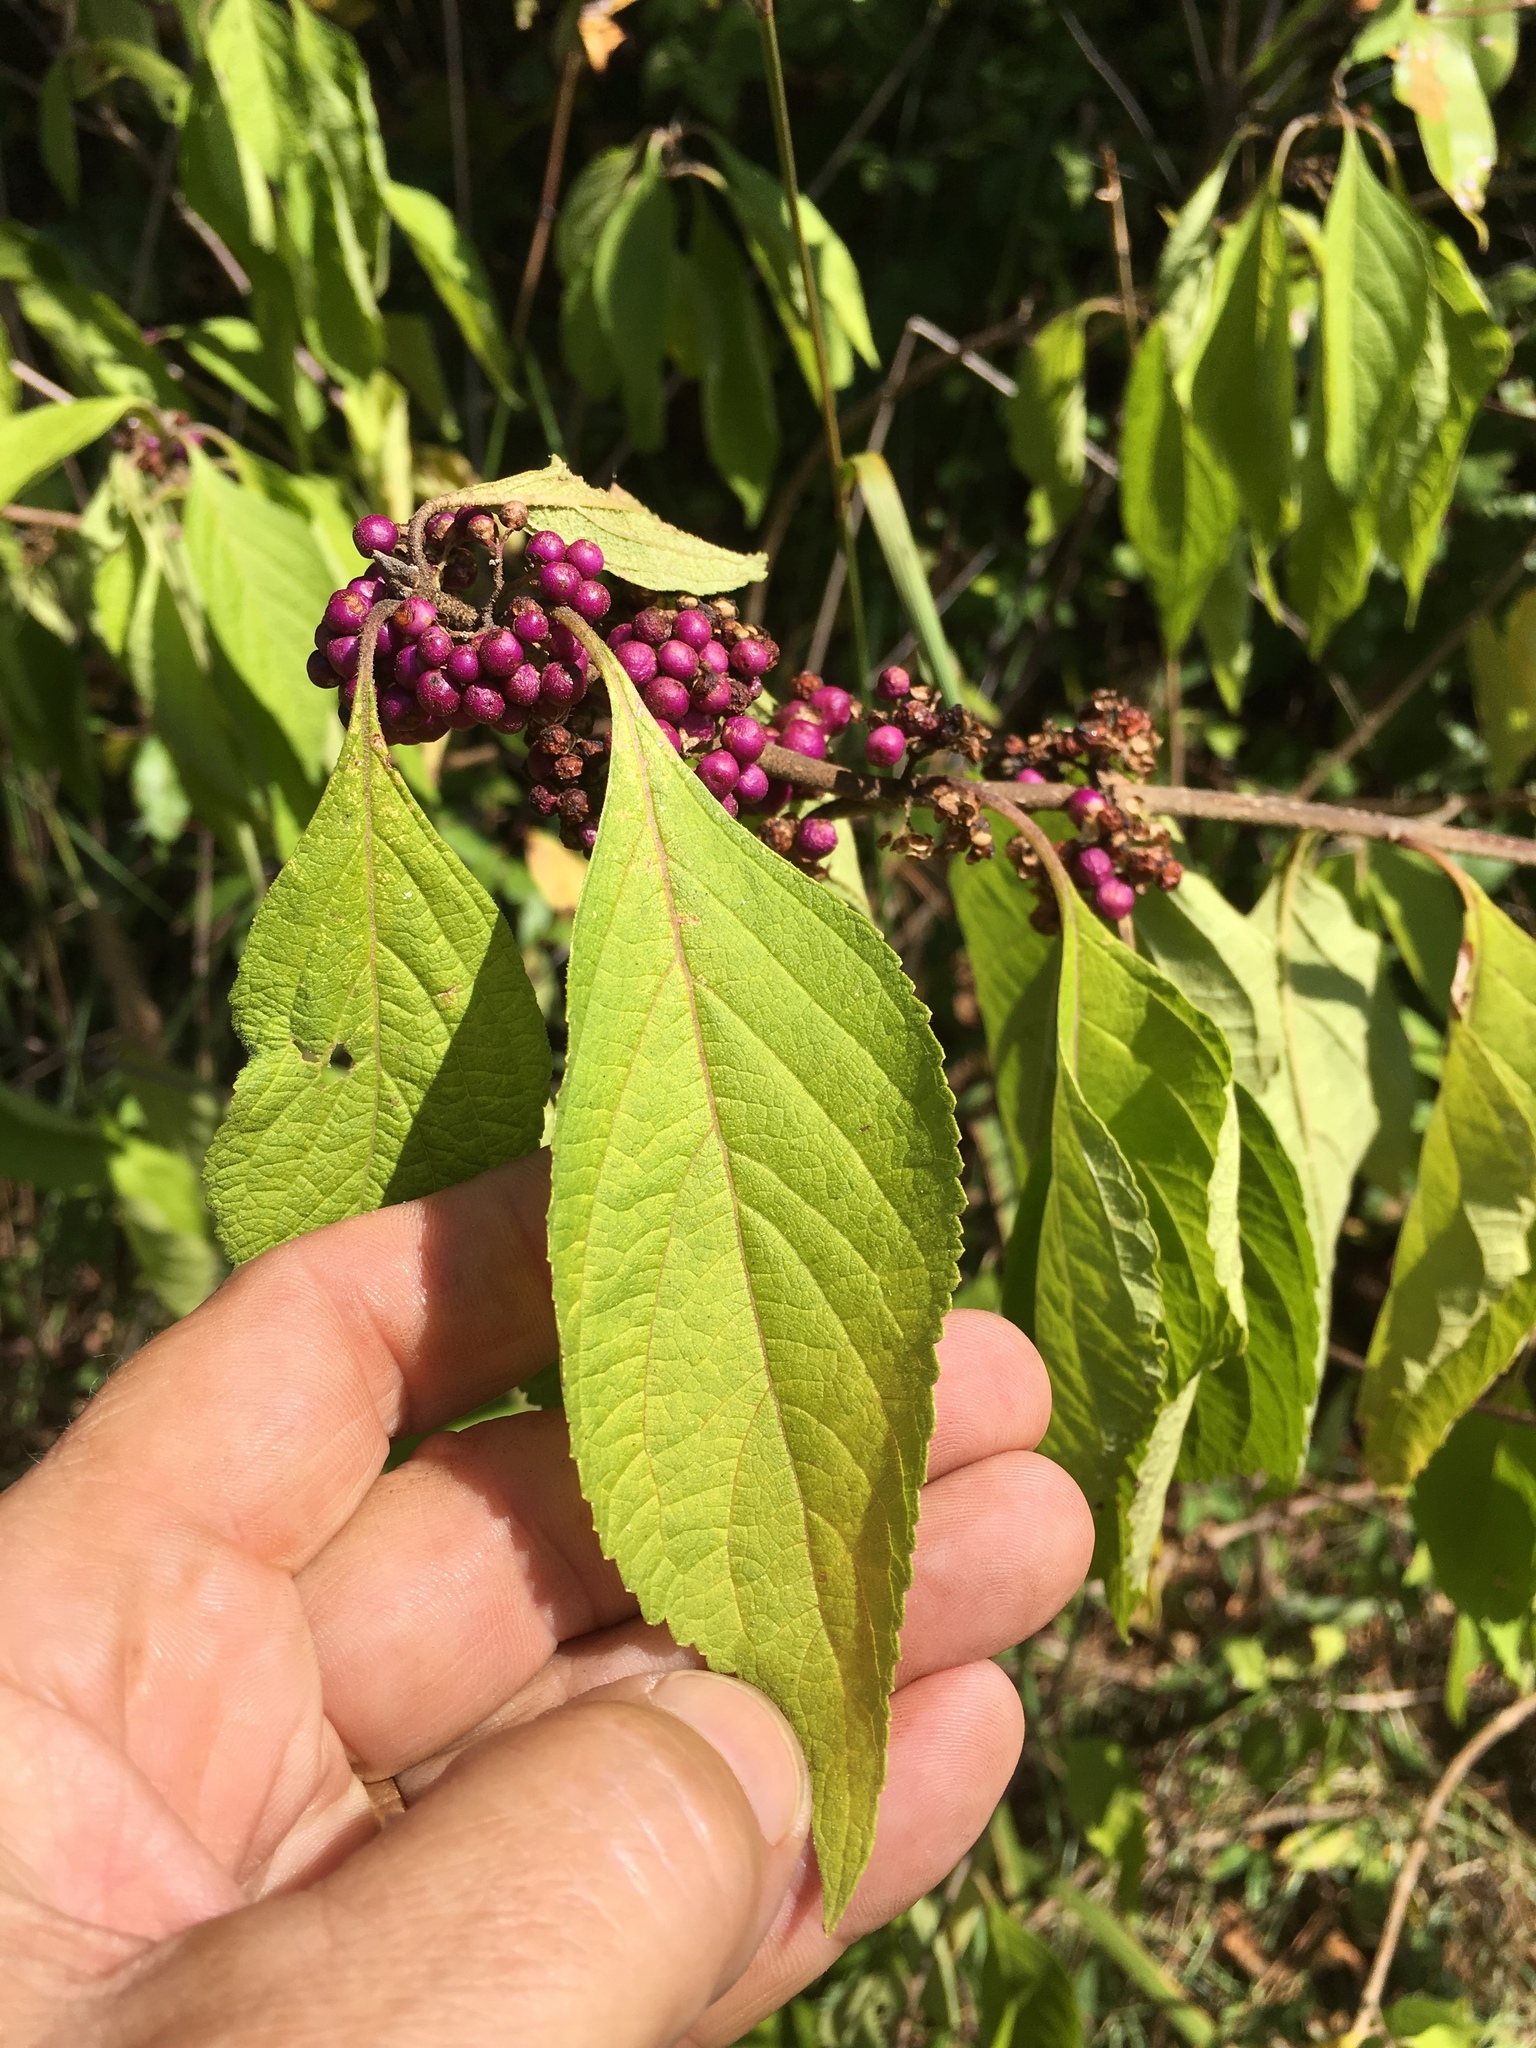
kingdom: Plantae
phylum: Tracheophyta
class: Magnoliopsida
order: Lamiales
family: Lamiaceae
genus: Callicarpa
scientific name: Callicarpa americana
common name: American beautyberry
